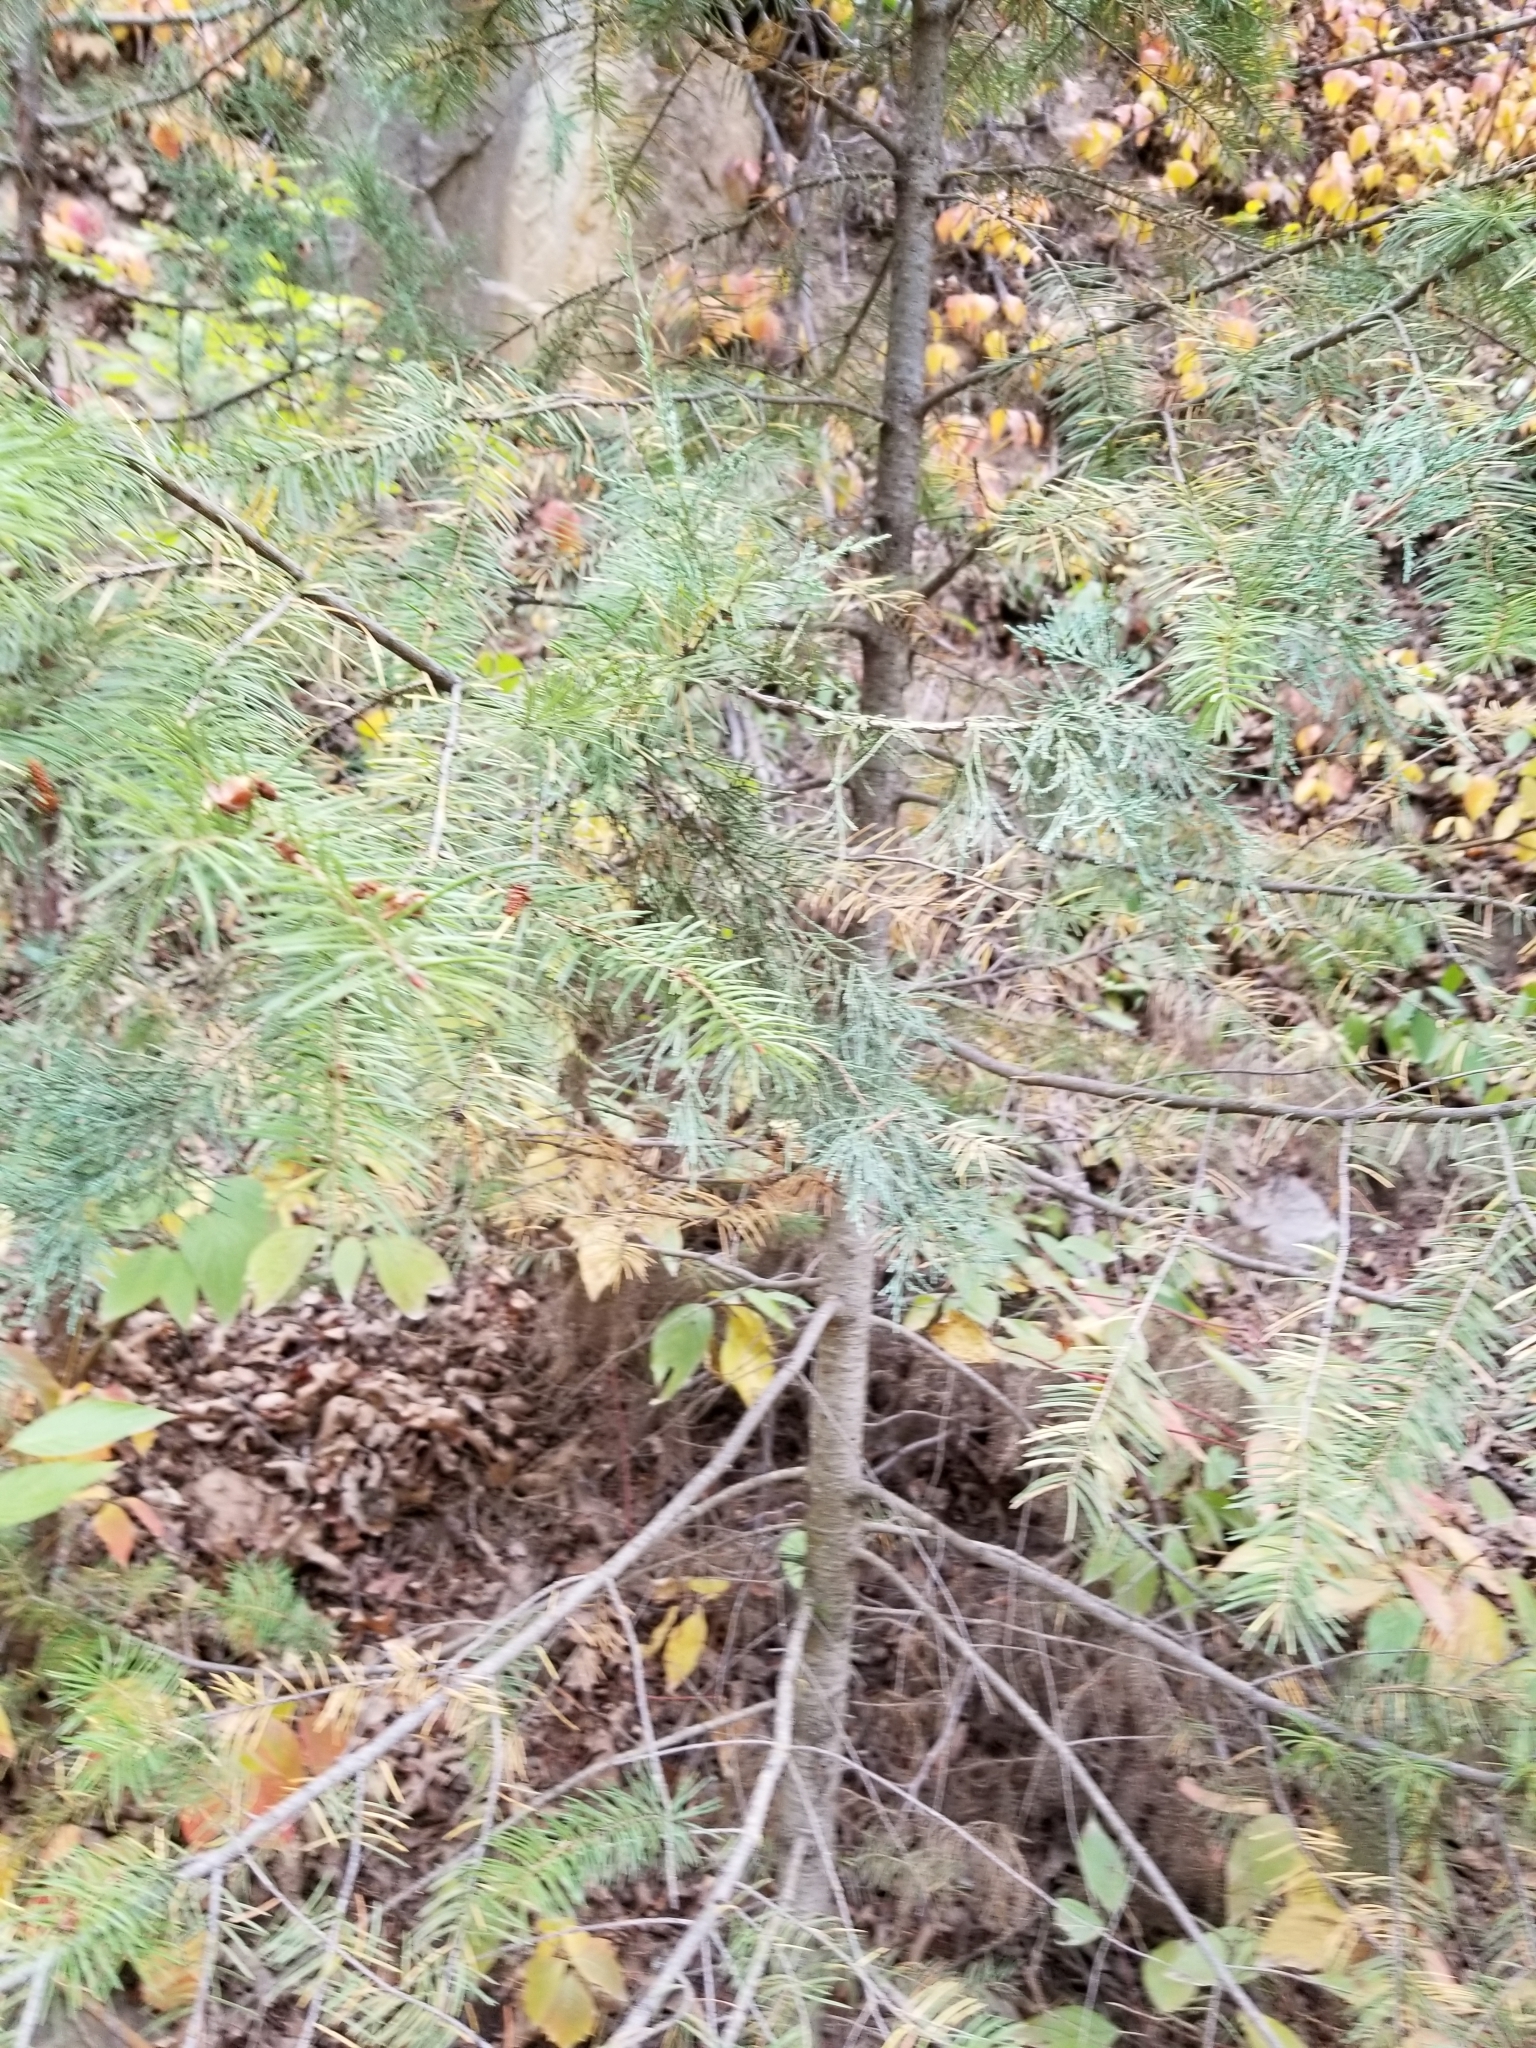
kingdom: Plantae
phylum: Tracheophyta
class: Pinopsida
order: Pinales
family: Pinaceae
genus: Pseudotsuga
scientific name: Pseudotsuga menziesii
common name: Douglas fir
